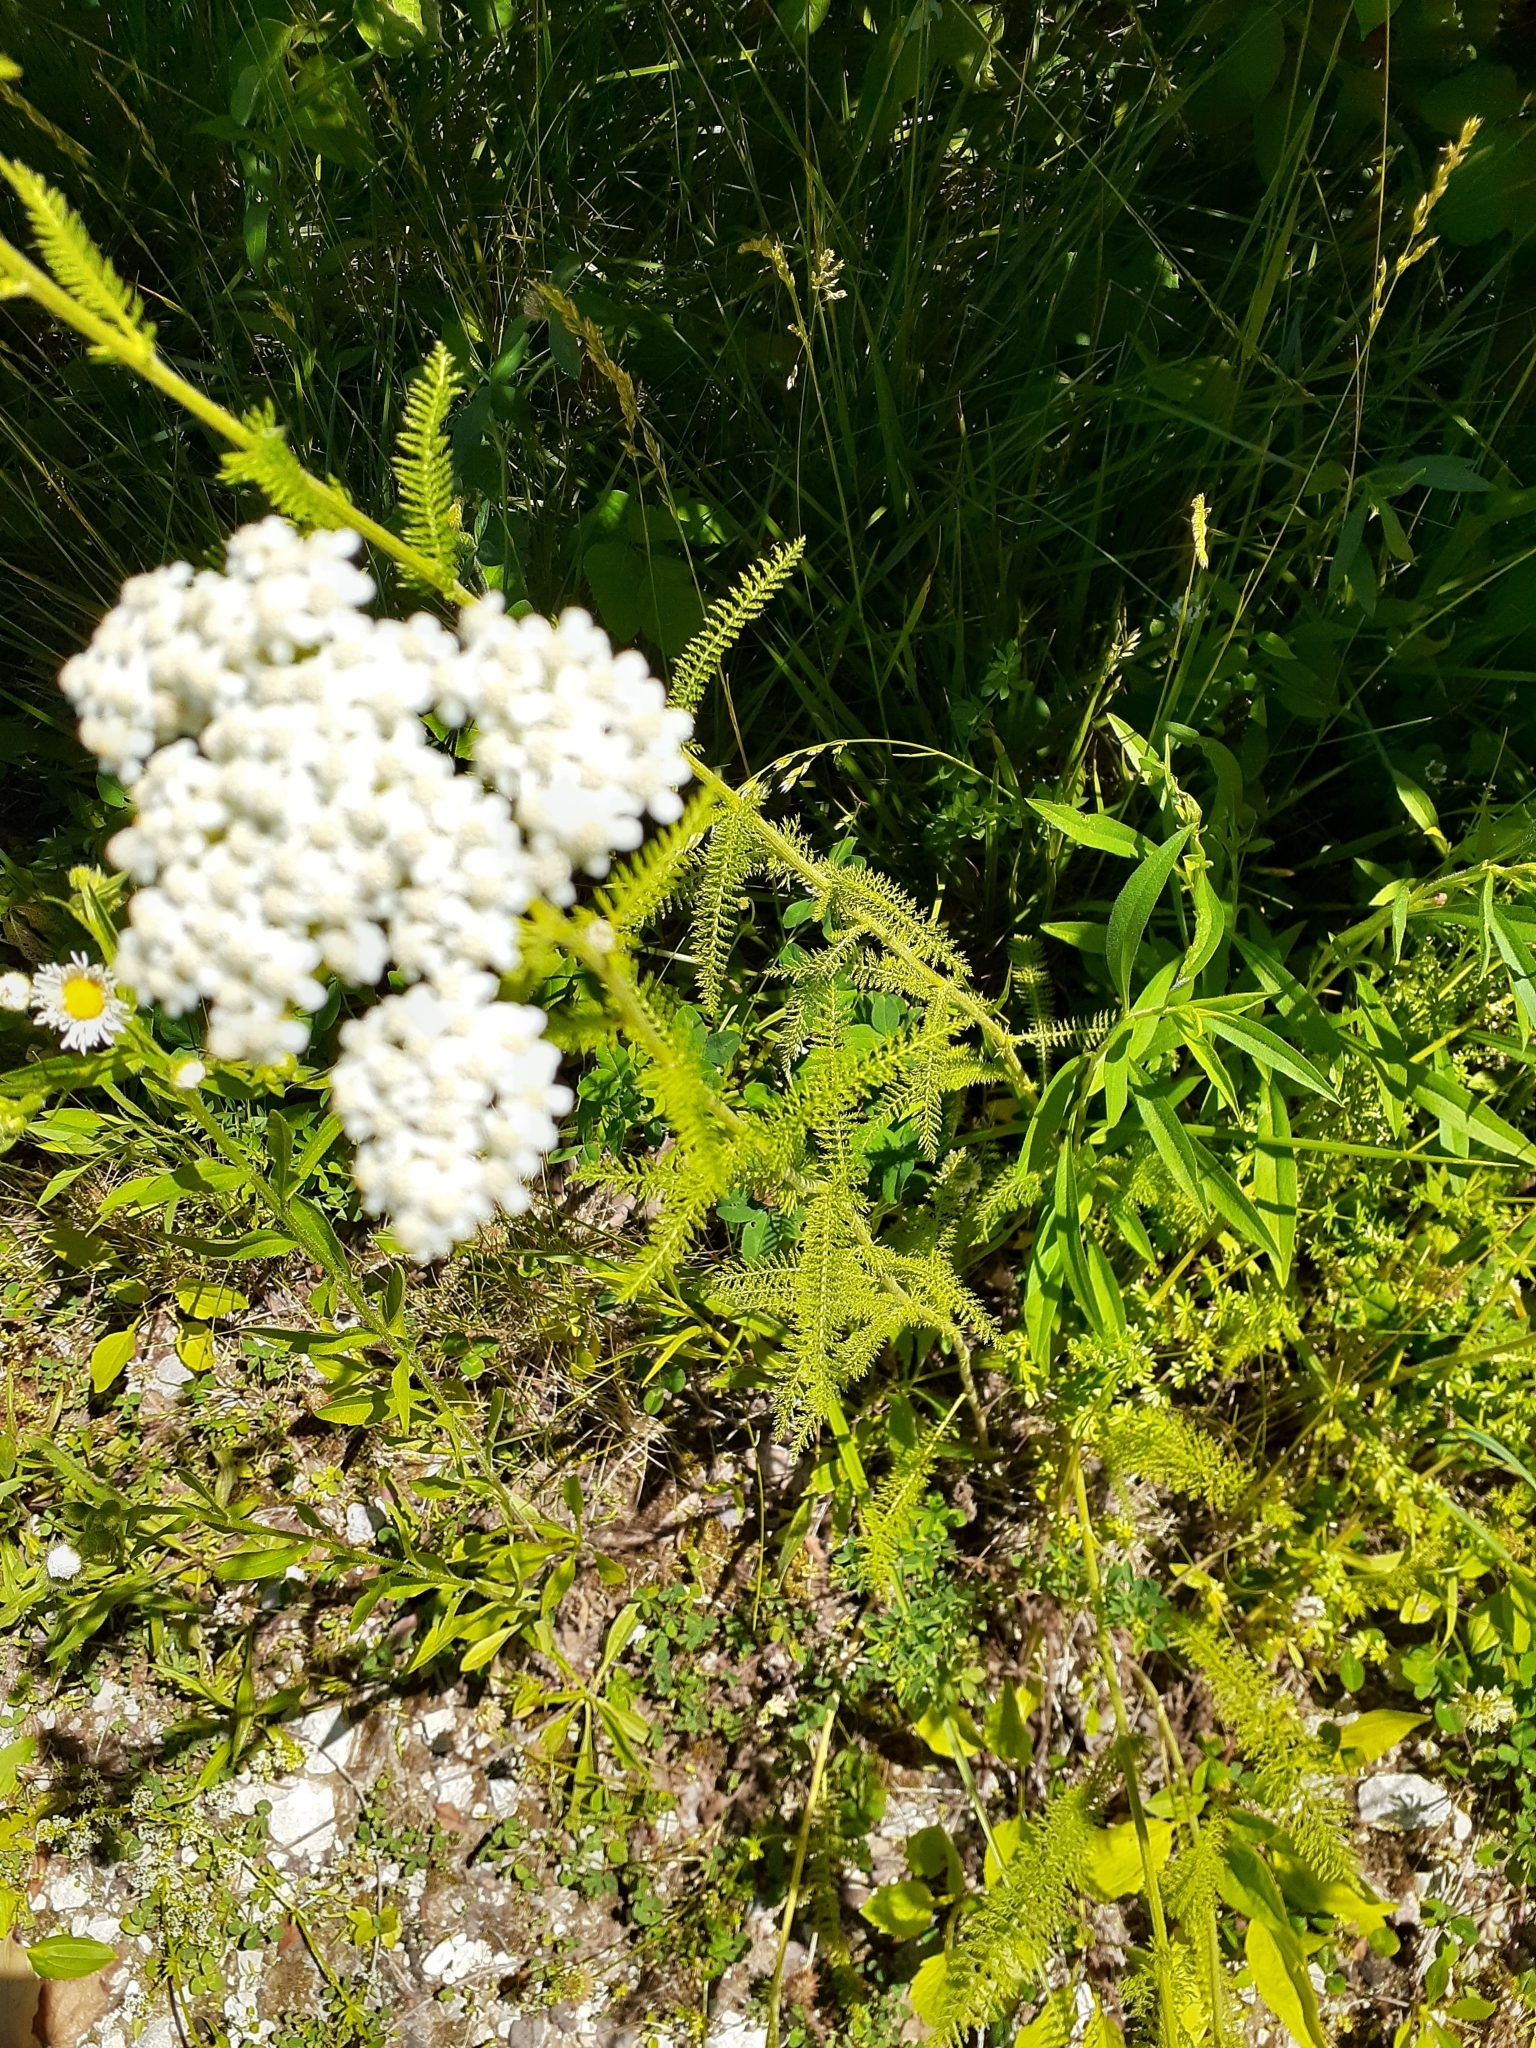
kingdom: Plantae
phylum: Tracheophyta
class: Magnoliopsida
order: Asterales
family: Asteraceae
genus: Achillea
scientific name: Achillea millefolium
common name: Yarrow
